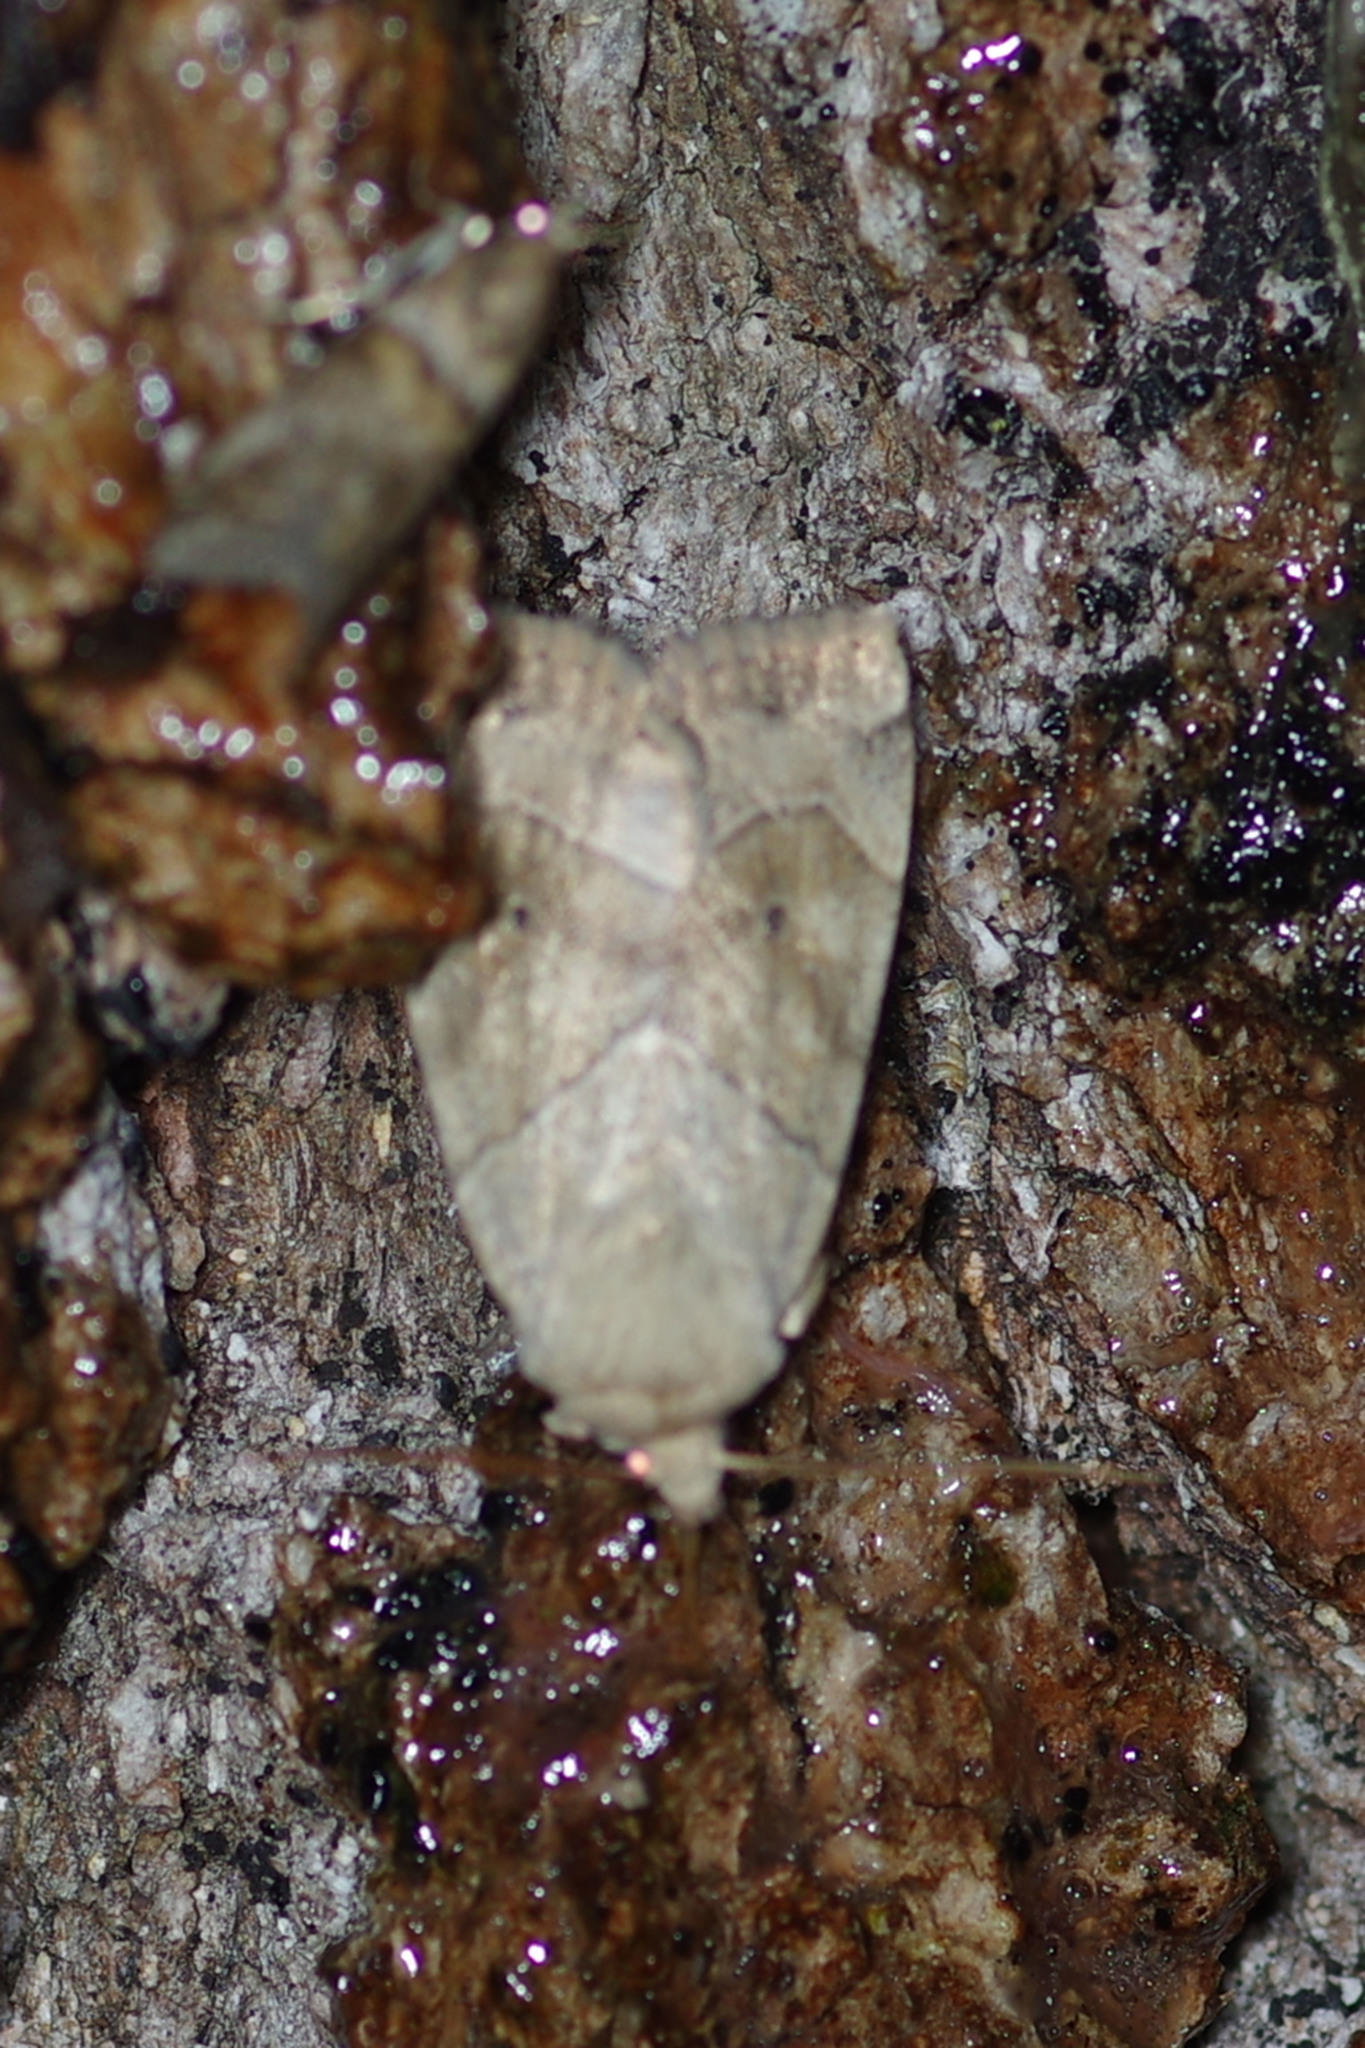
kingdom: Animalia
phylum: Arthropoda
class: Insecta
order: Lepidoptera
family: Noctuidae
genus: Cosmia
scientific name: Cosmia trapezina
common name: Dun-bar
